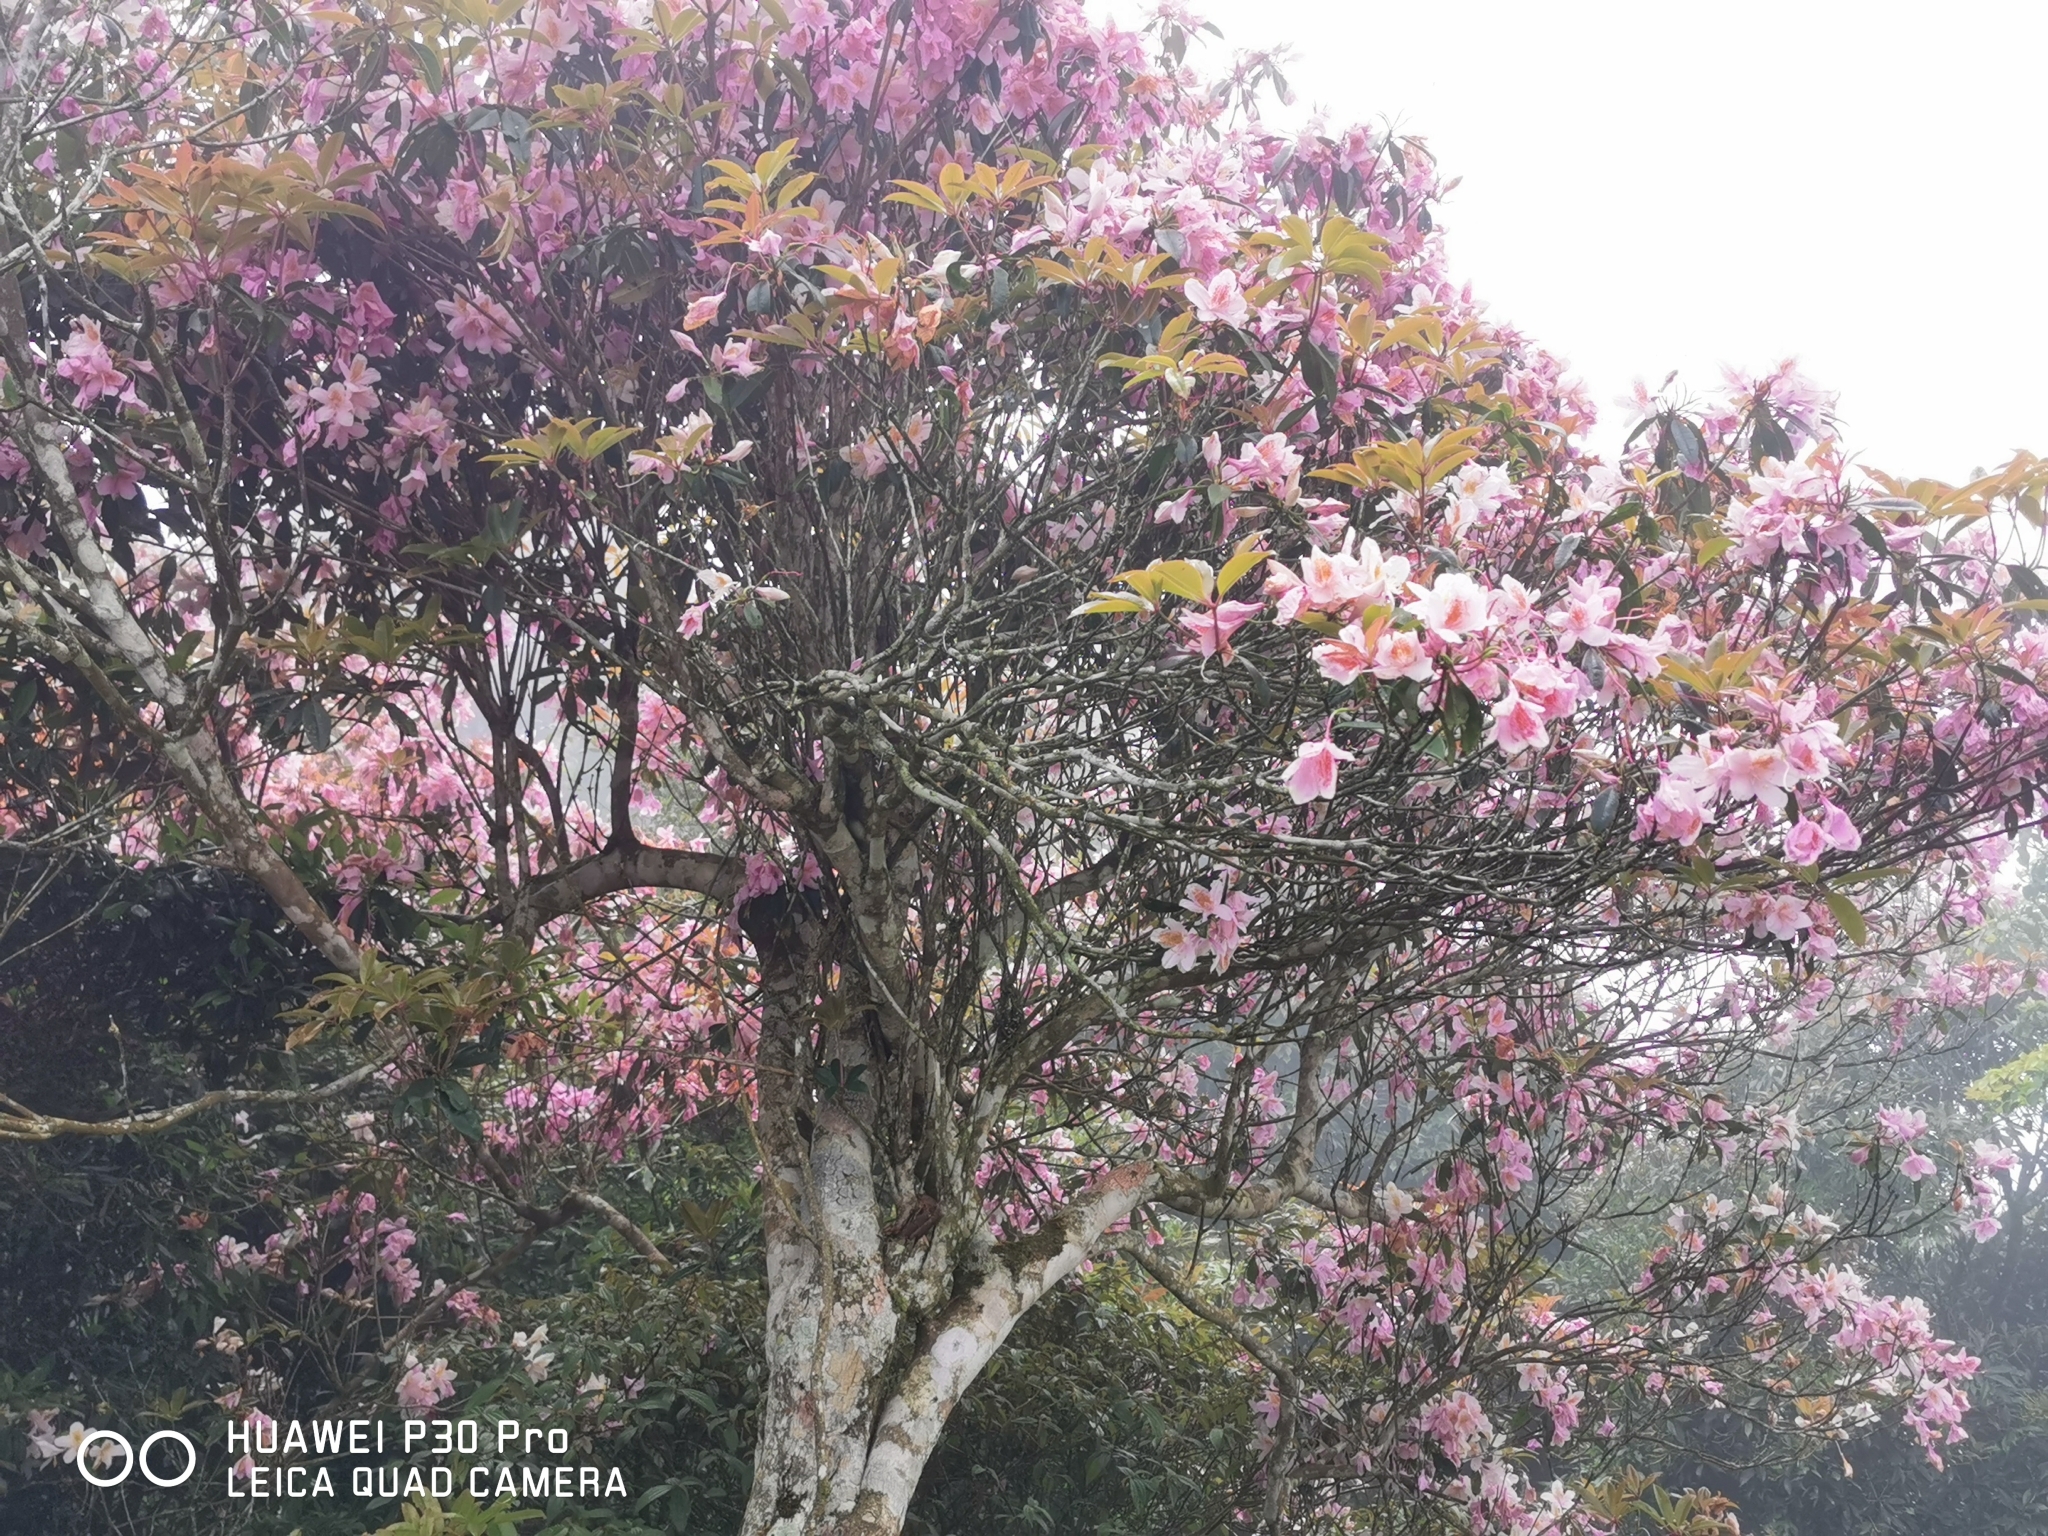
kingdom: Plantae
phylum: Tracheophyta
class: Magnoliopsida
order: Ericales
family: Ericaceae
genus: Rhododendron
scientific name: Rhododendron latoucheae
